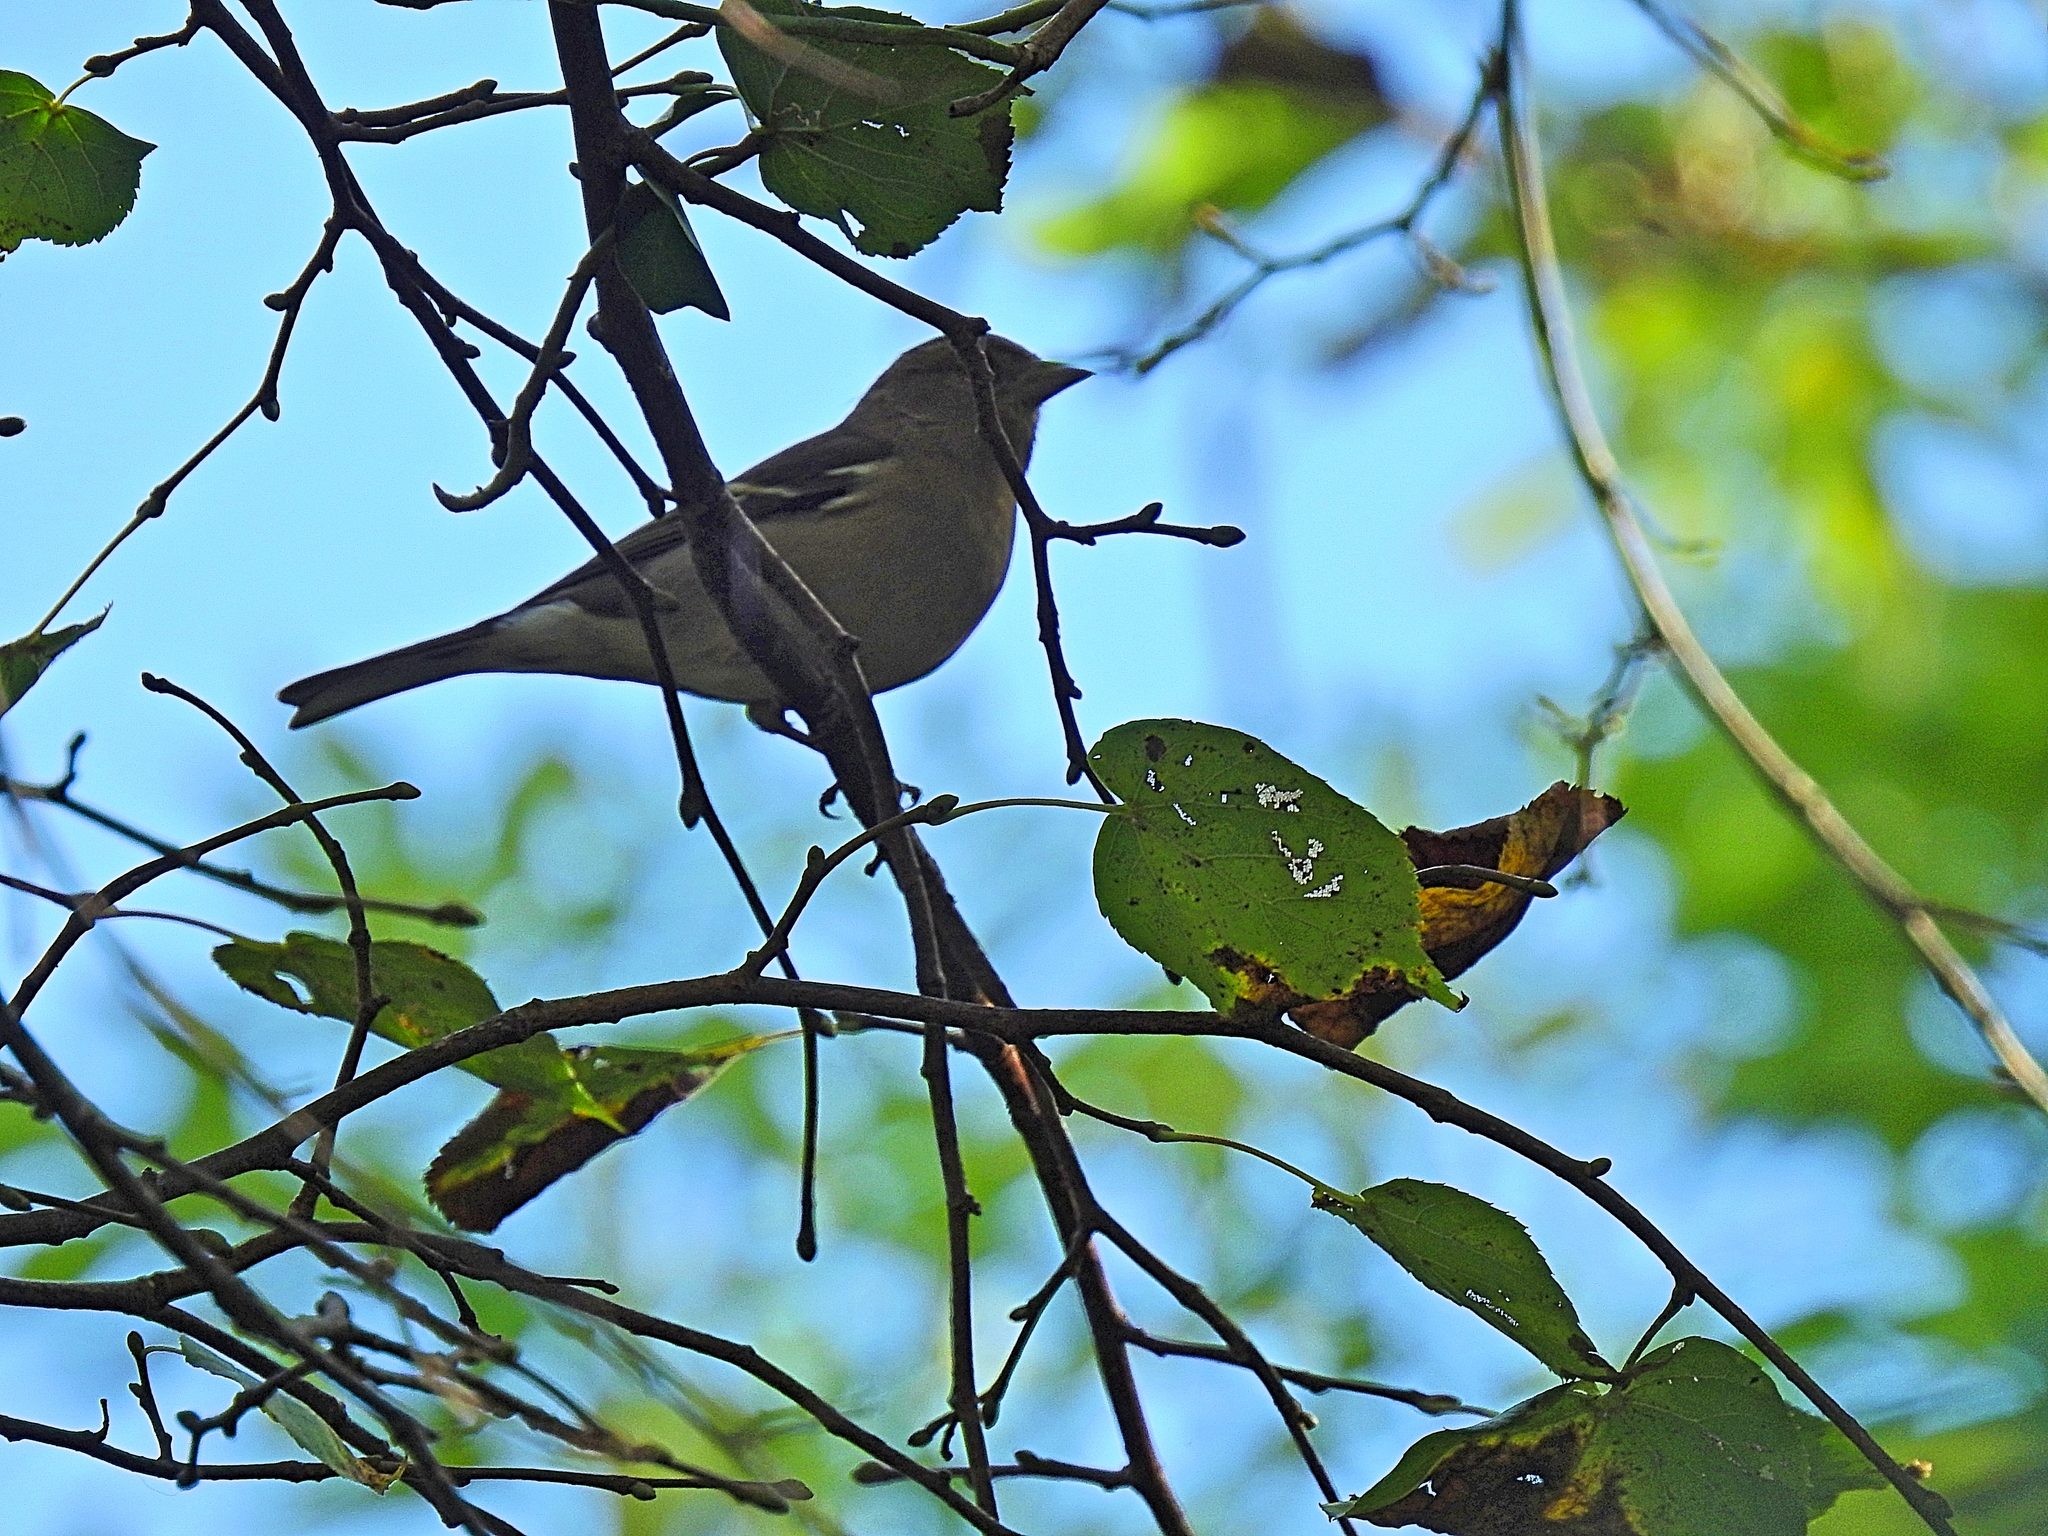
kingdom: Animalia
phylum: Chordata
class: Aves
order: Passeriformes
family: Fringillidae
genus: Fringilla
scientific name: Fringilla coelebs
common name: Common chaffinch
